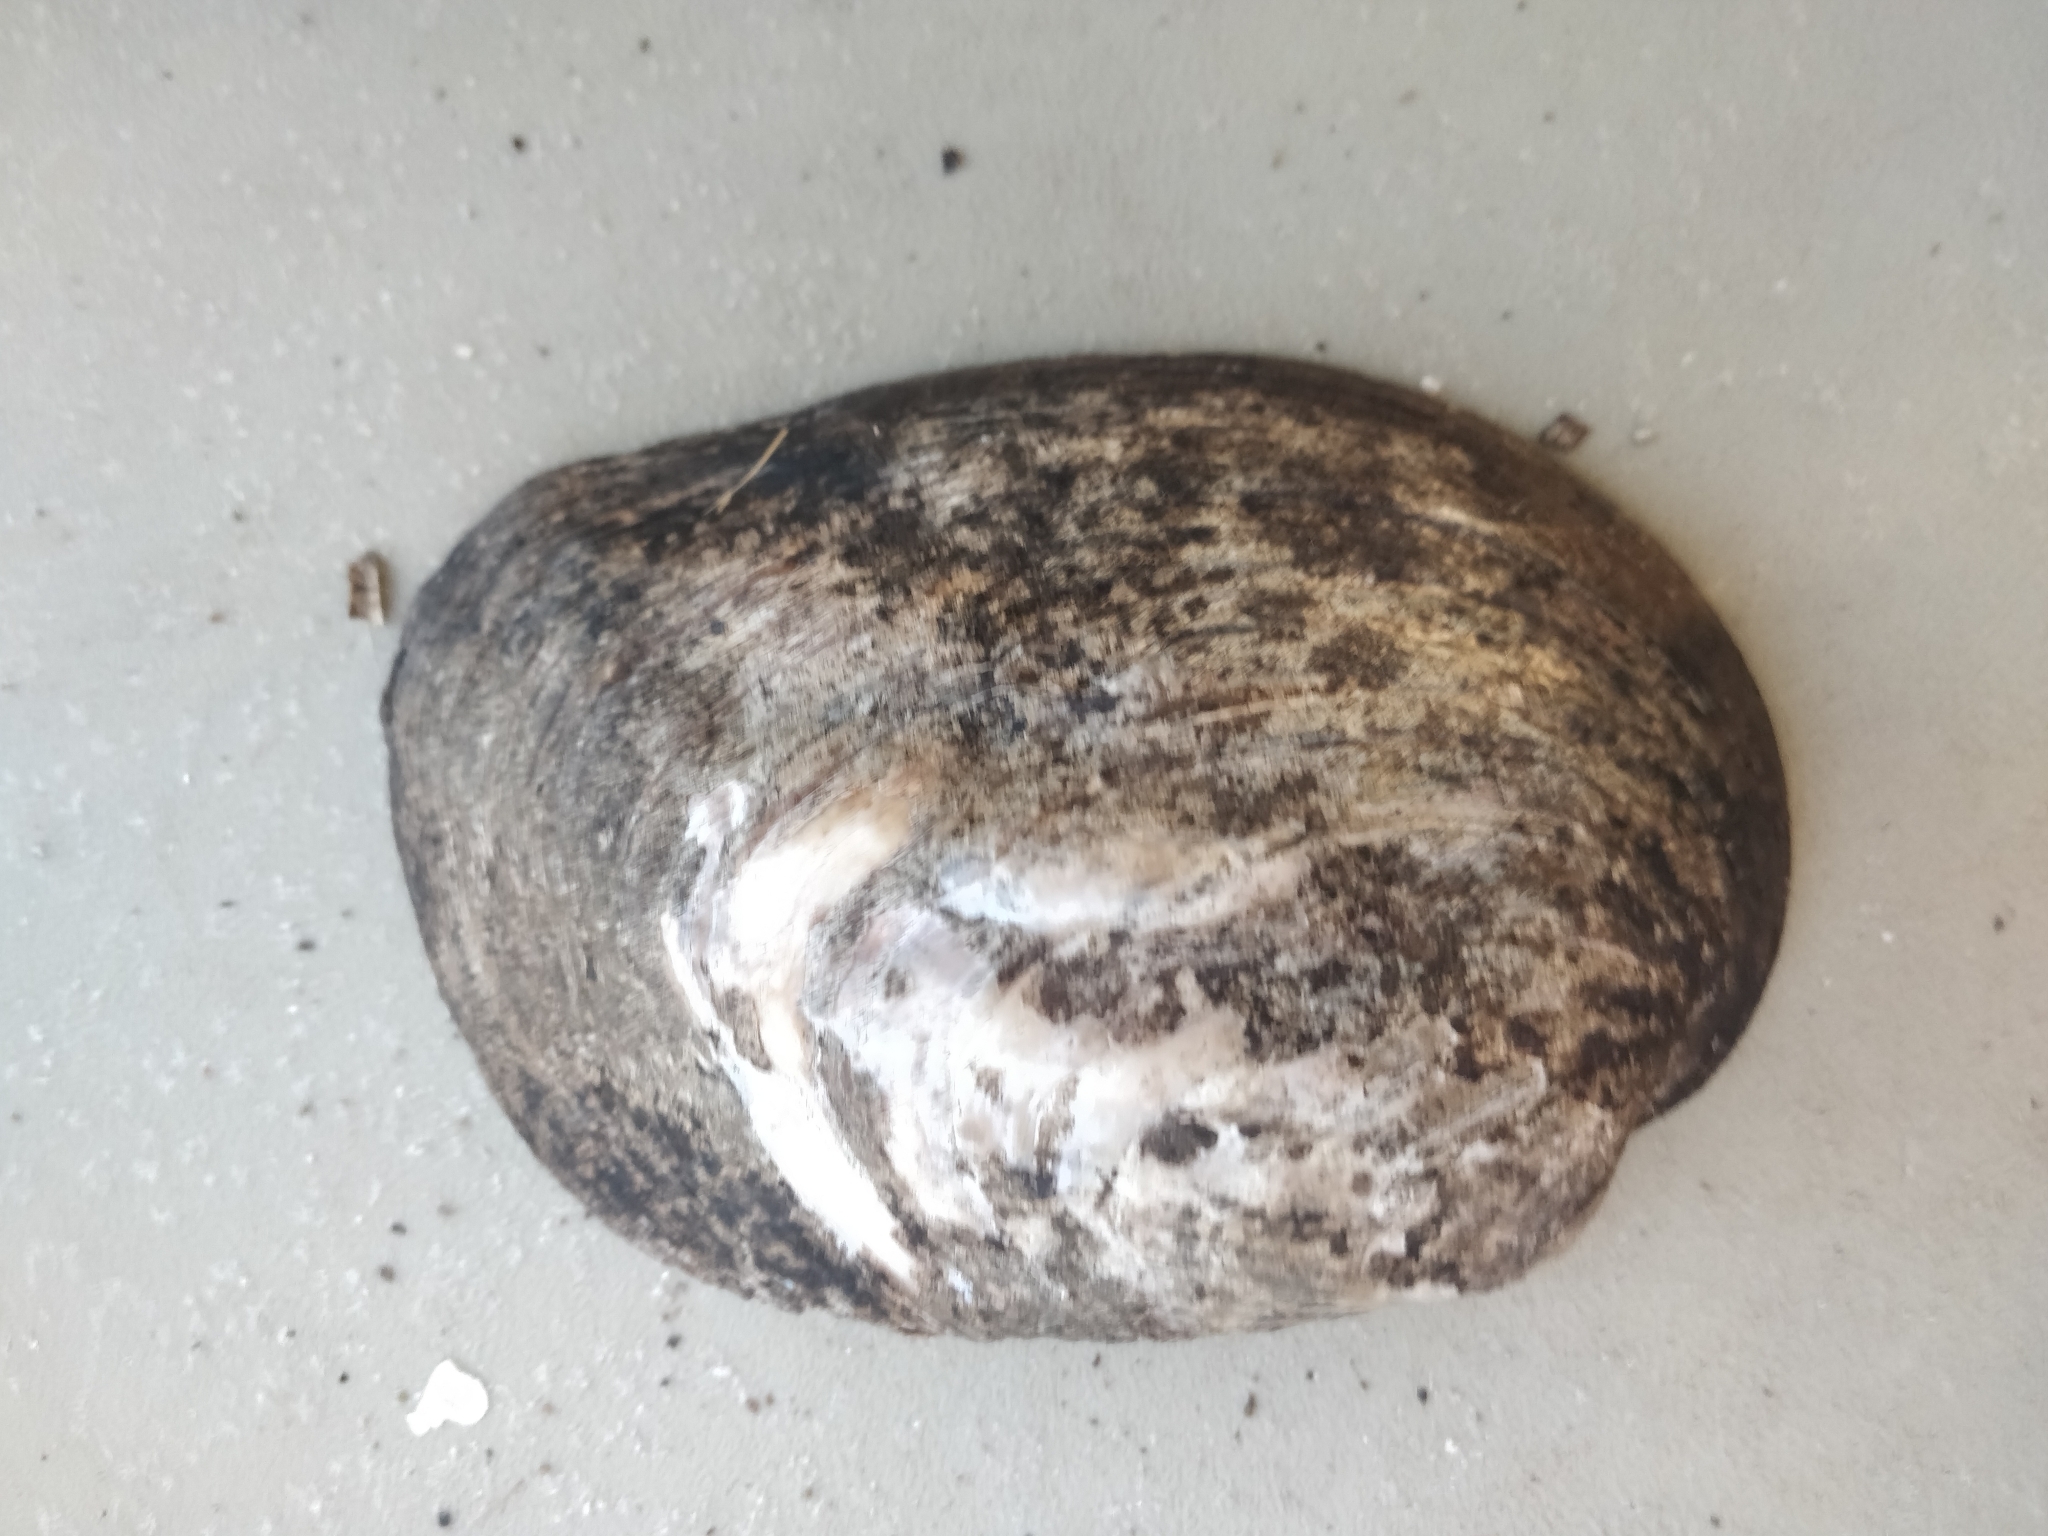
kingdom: Animalia
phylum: Mollusca
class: Bivalvia
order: Unionida
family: Unionidae
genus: Amblema
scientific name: Amblema plicata
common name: Threeridge
